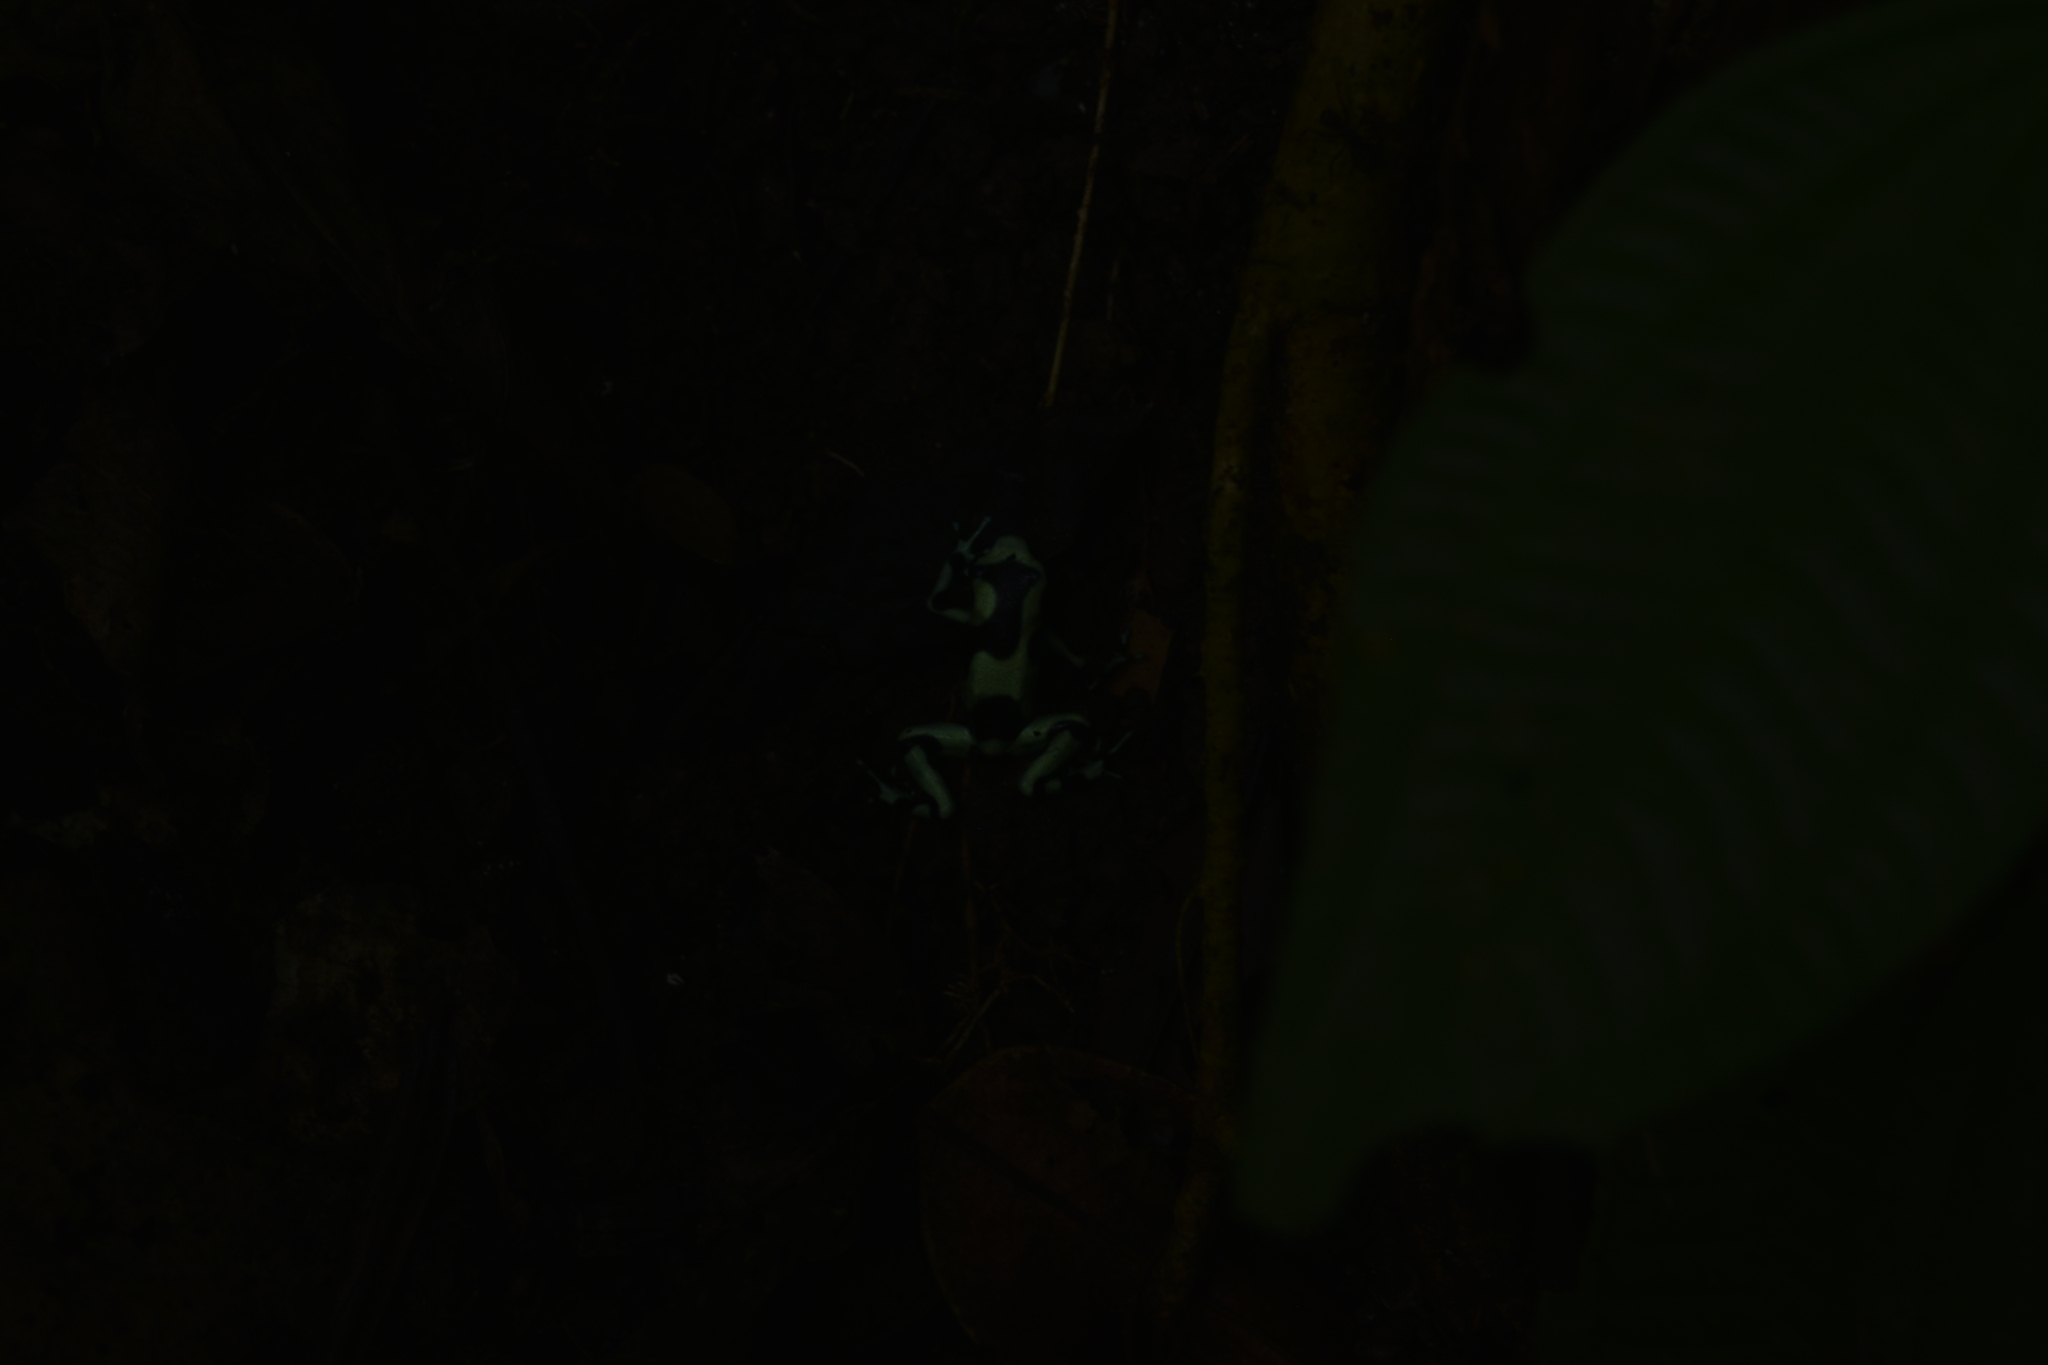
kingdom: Animalia
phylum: Chordata
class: Amphibia
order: Anura
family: Dendrobatidae
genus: Dendrobates
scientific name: Dendrobates auratus
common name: Green and black poison dart frog
